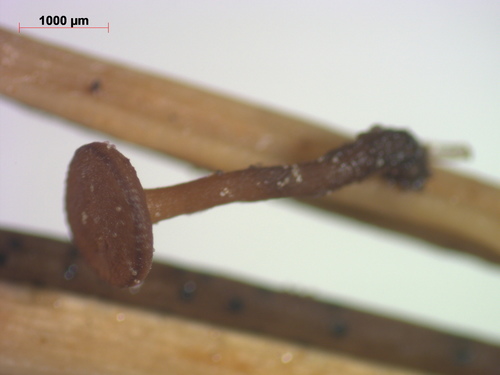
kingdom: Fungi
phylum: Ascomycota
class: Leotiomycetes
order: Helotiales
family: Rutstroemiaceae
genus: Rutstroemia
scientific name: Rutstroemia paludosa
